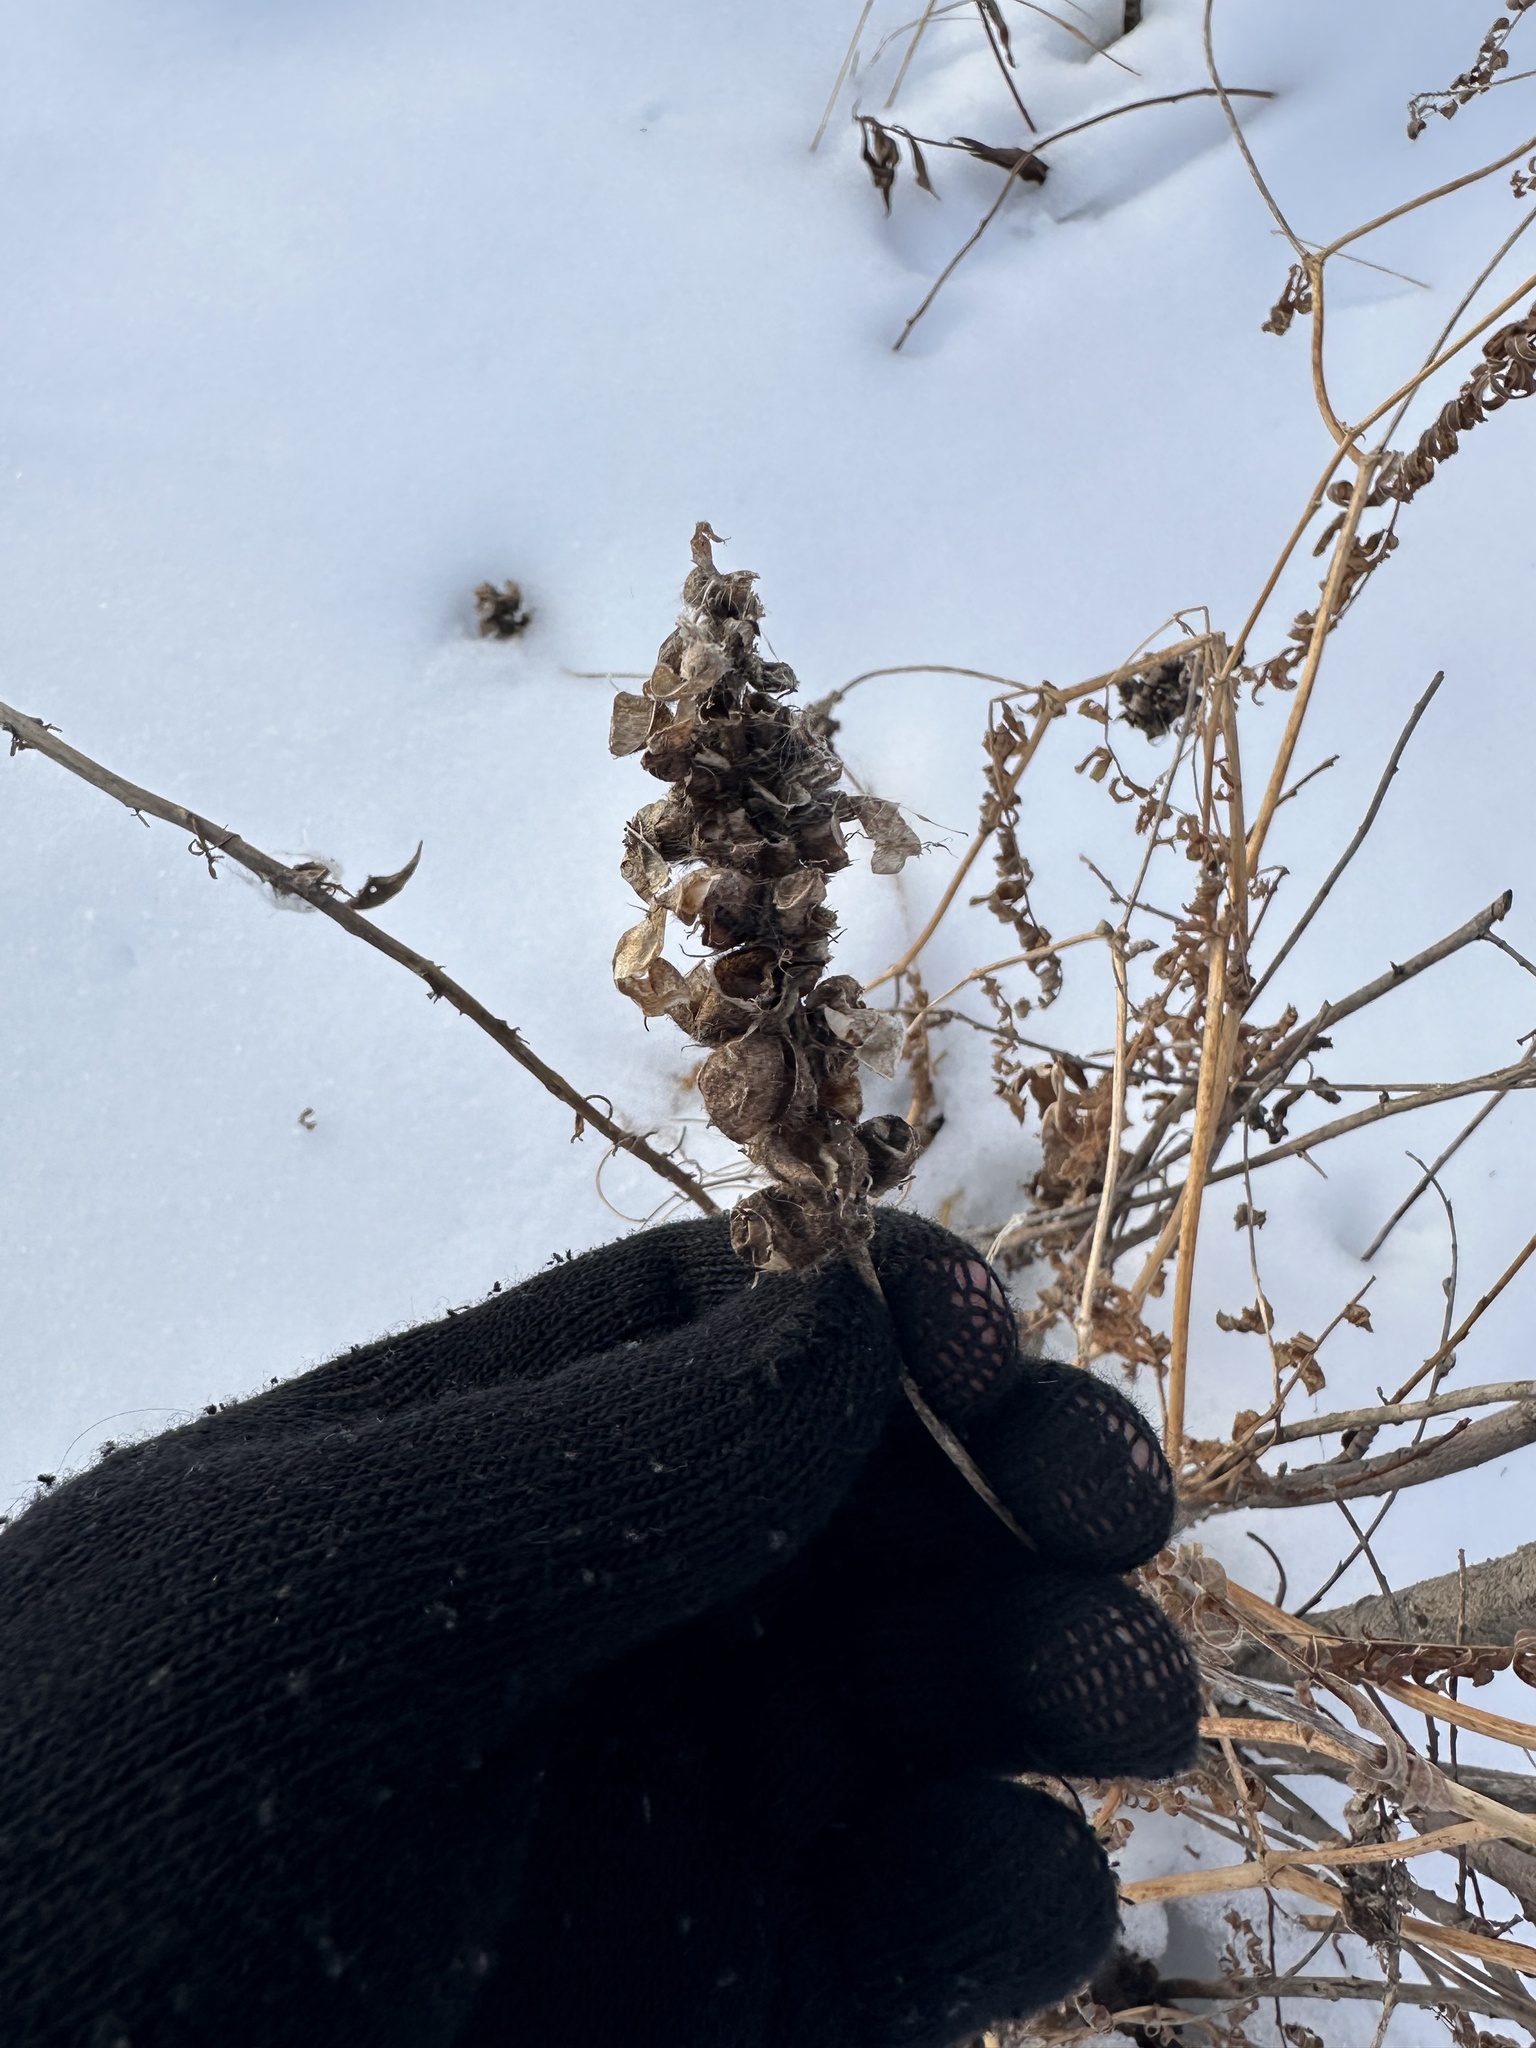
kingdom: Plantae
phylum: Tracheophyta
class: Magnoliopsida
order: Fabales
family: Fabaceae
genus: Astragalus
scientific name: Astragalus cicer
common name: Chick-pea milk-vetch
